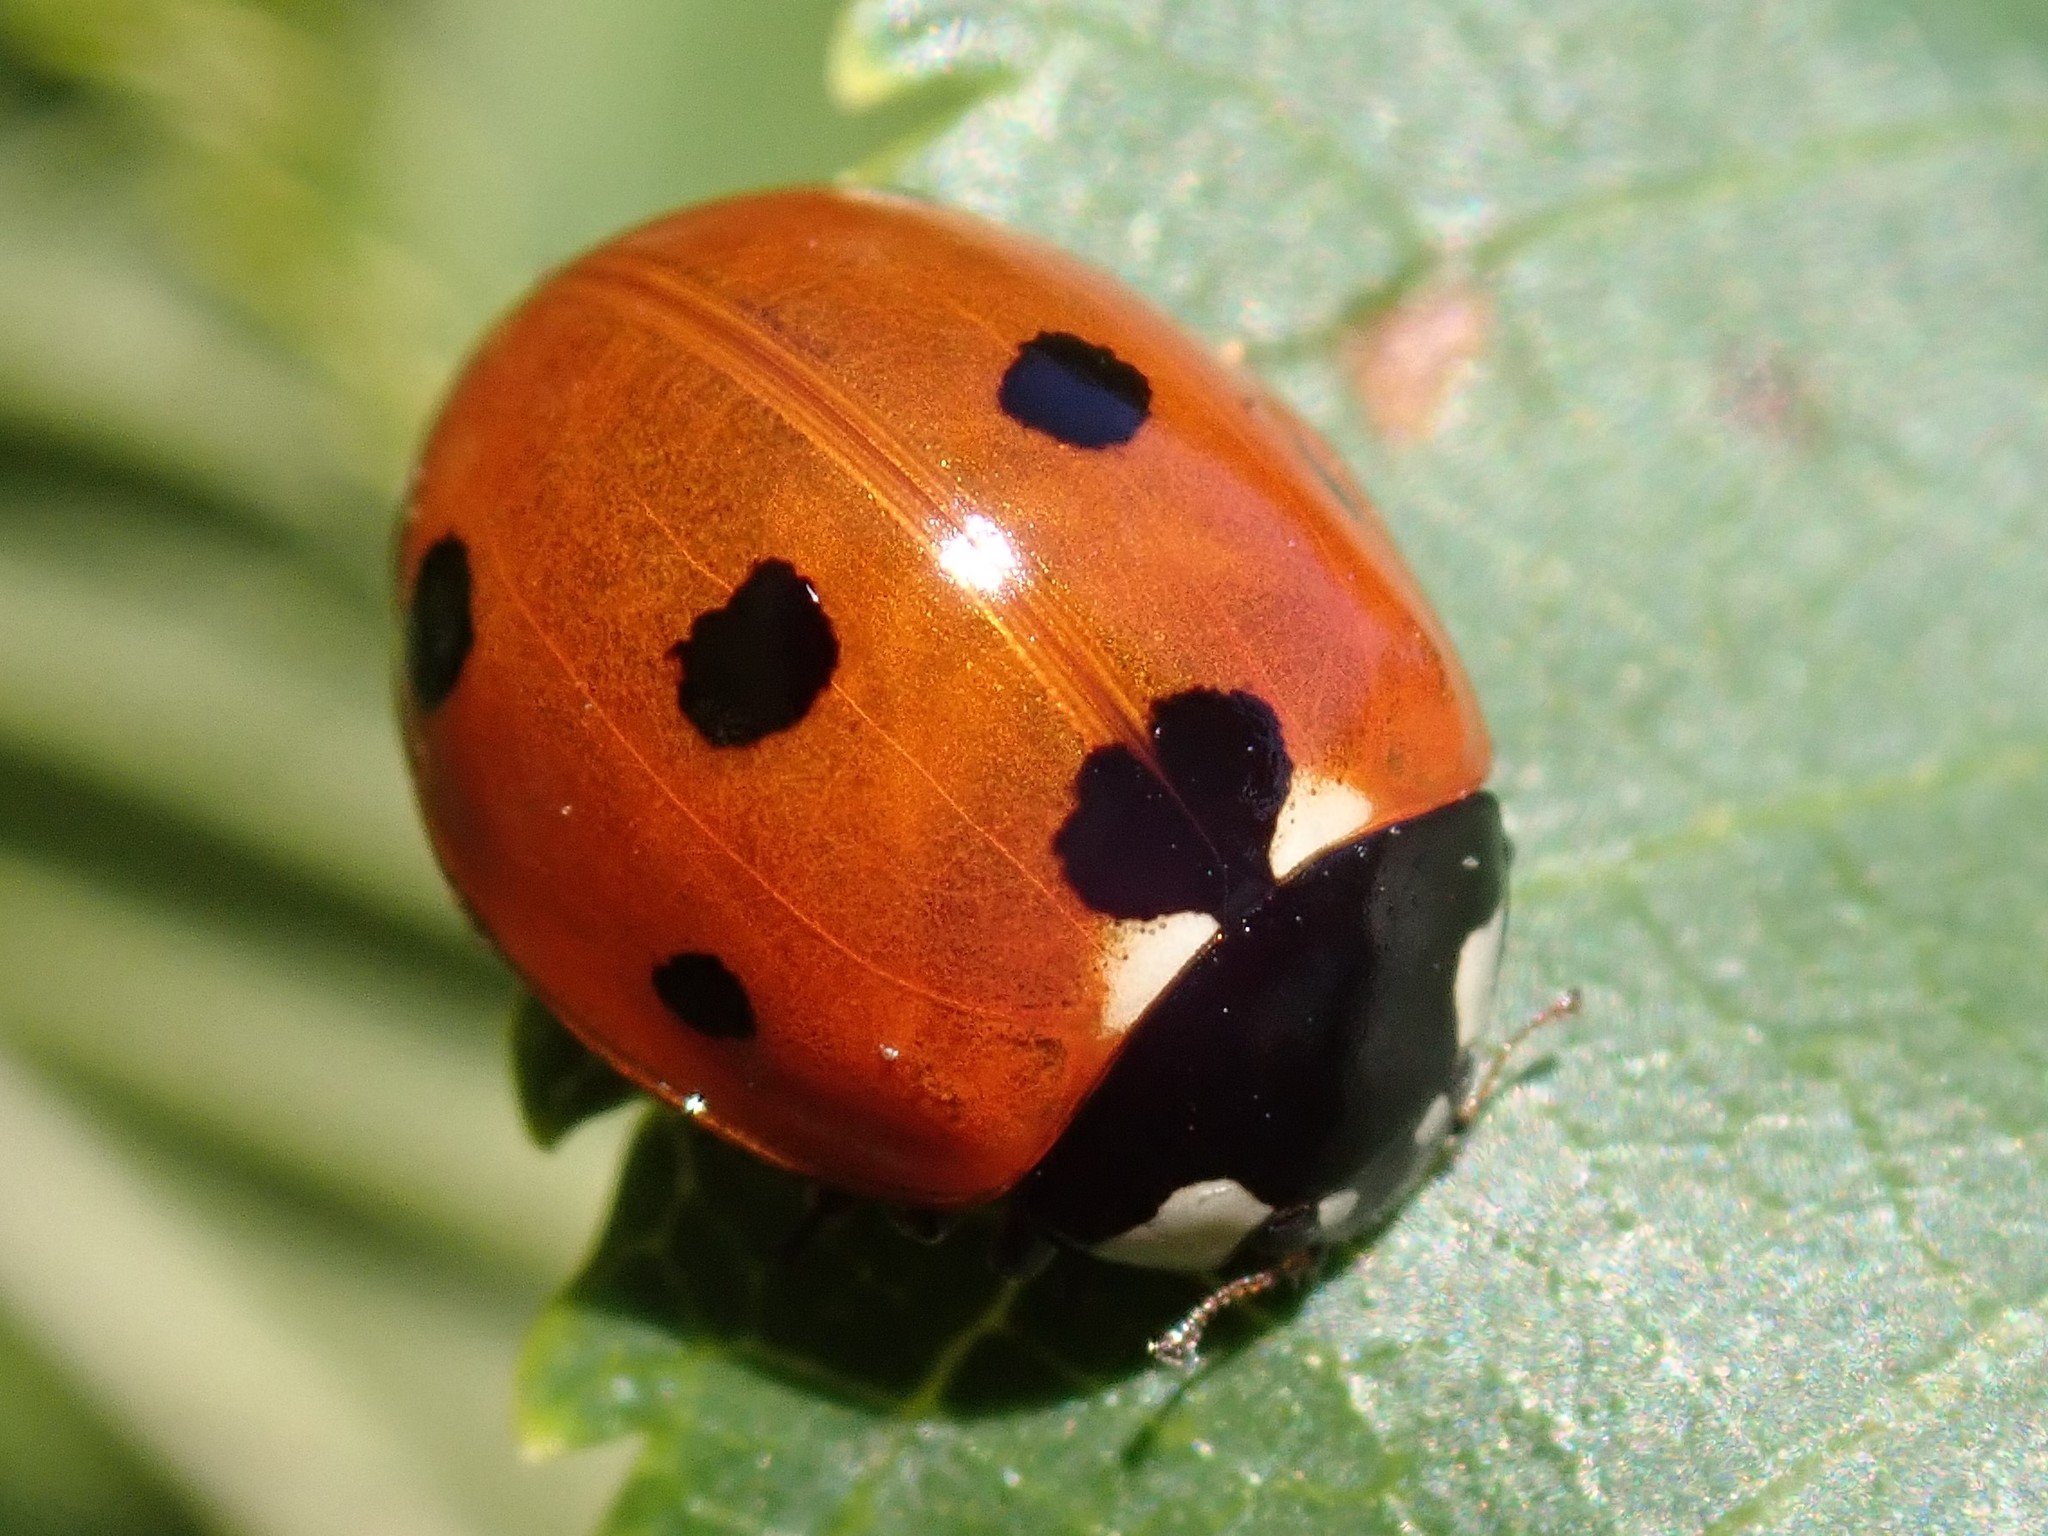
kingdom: Animalia
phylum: Arthropoda
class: Insecta
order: Coleoptera
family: Coccinellidae
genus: Coccinella
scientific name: Coccinella septempunctata
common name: Sevenspotted lady beetle
